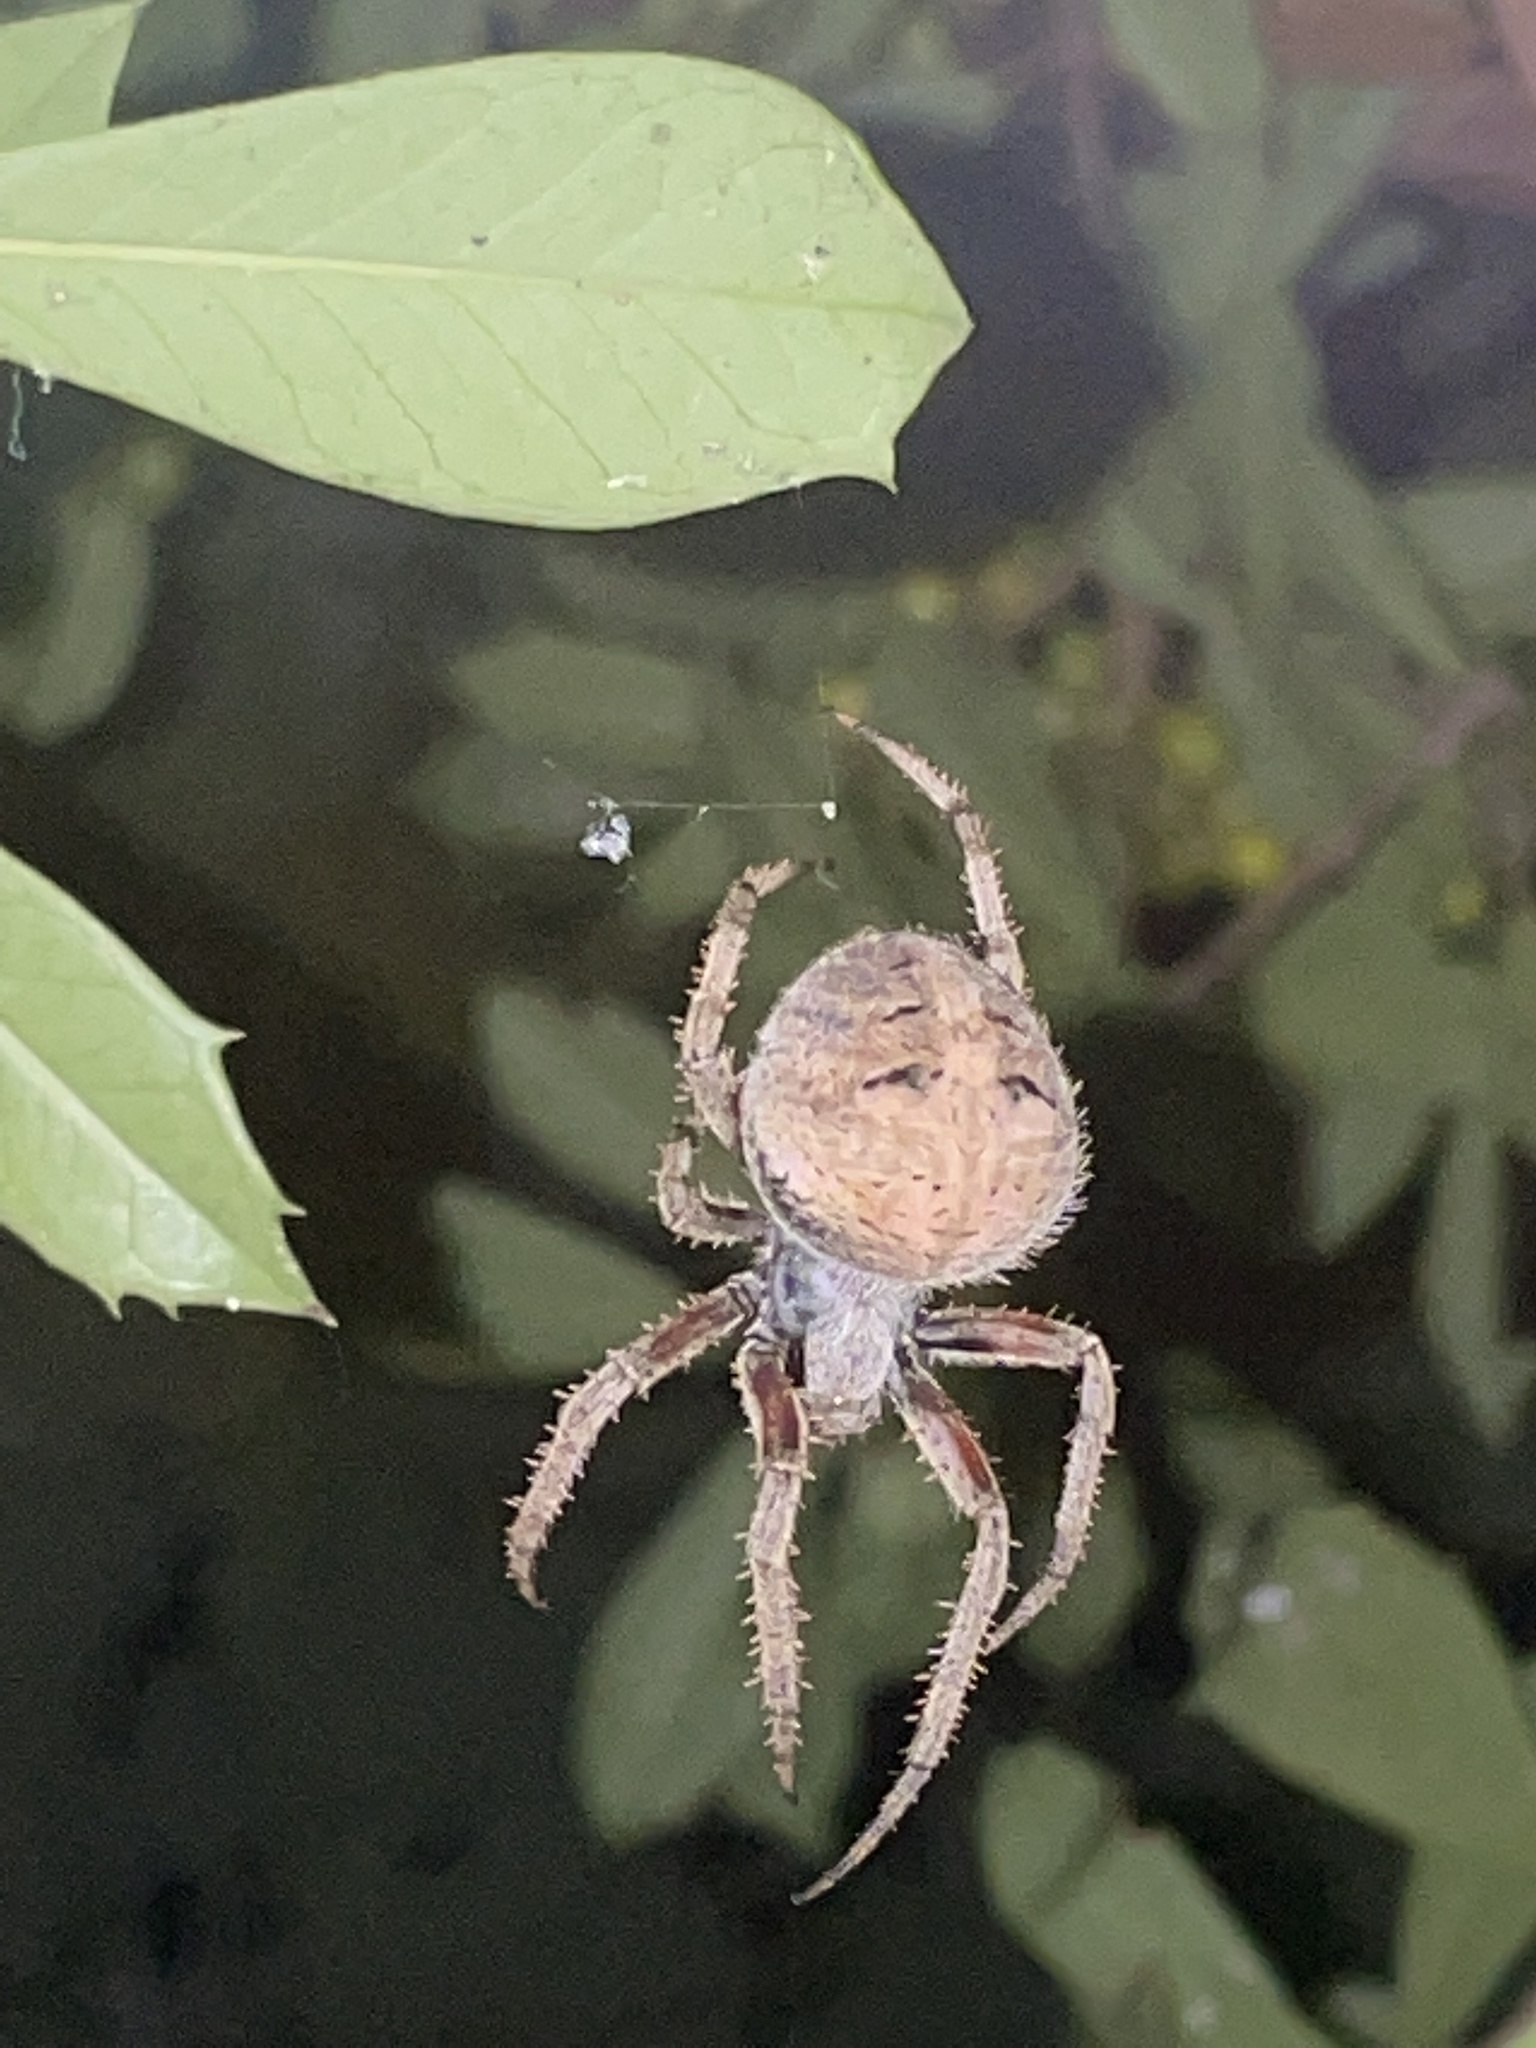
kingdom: Animalia
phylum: Arthropoda
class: Arachnida
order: Araneae
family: Araneidae
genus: Neoscona
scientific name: Neoscona arabesca
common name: Orb weavers
